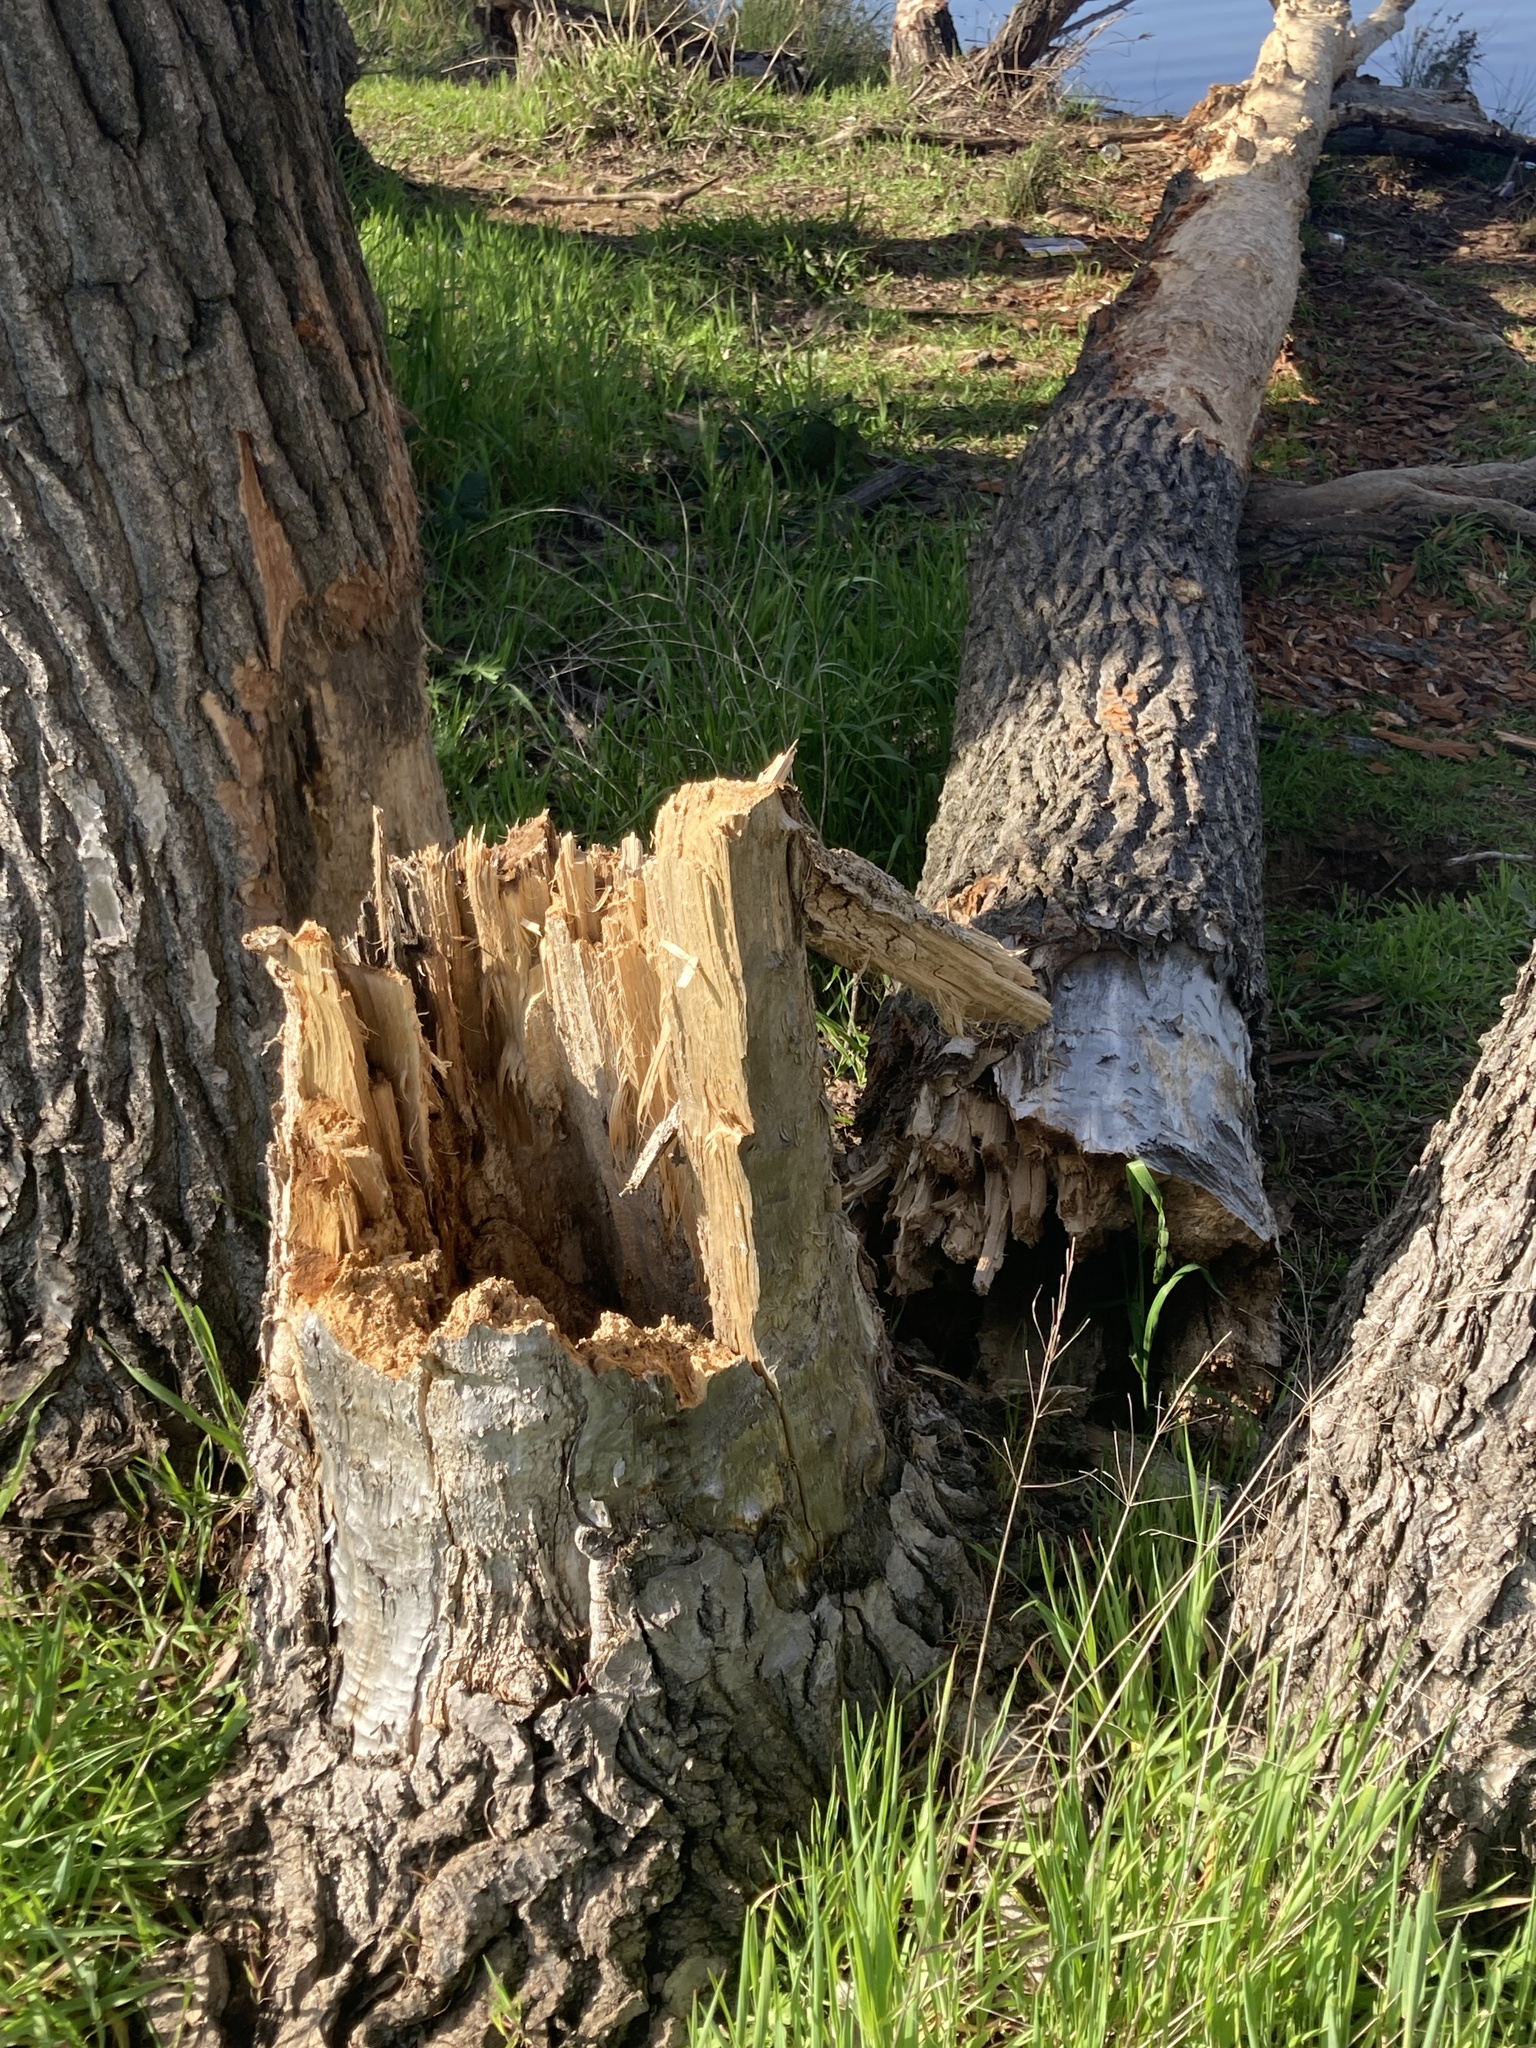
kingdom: Animalia
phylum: Chordata
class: Mammalia
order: Rodentia
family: Castoridae
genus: Castor
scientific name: Castor canadensis
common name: American beaver
